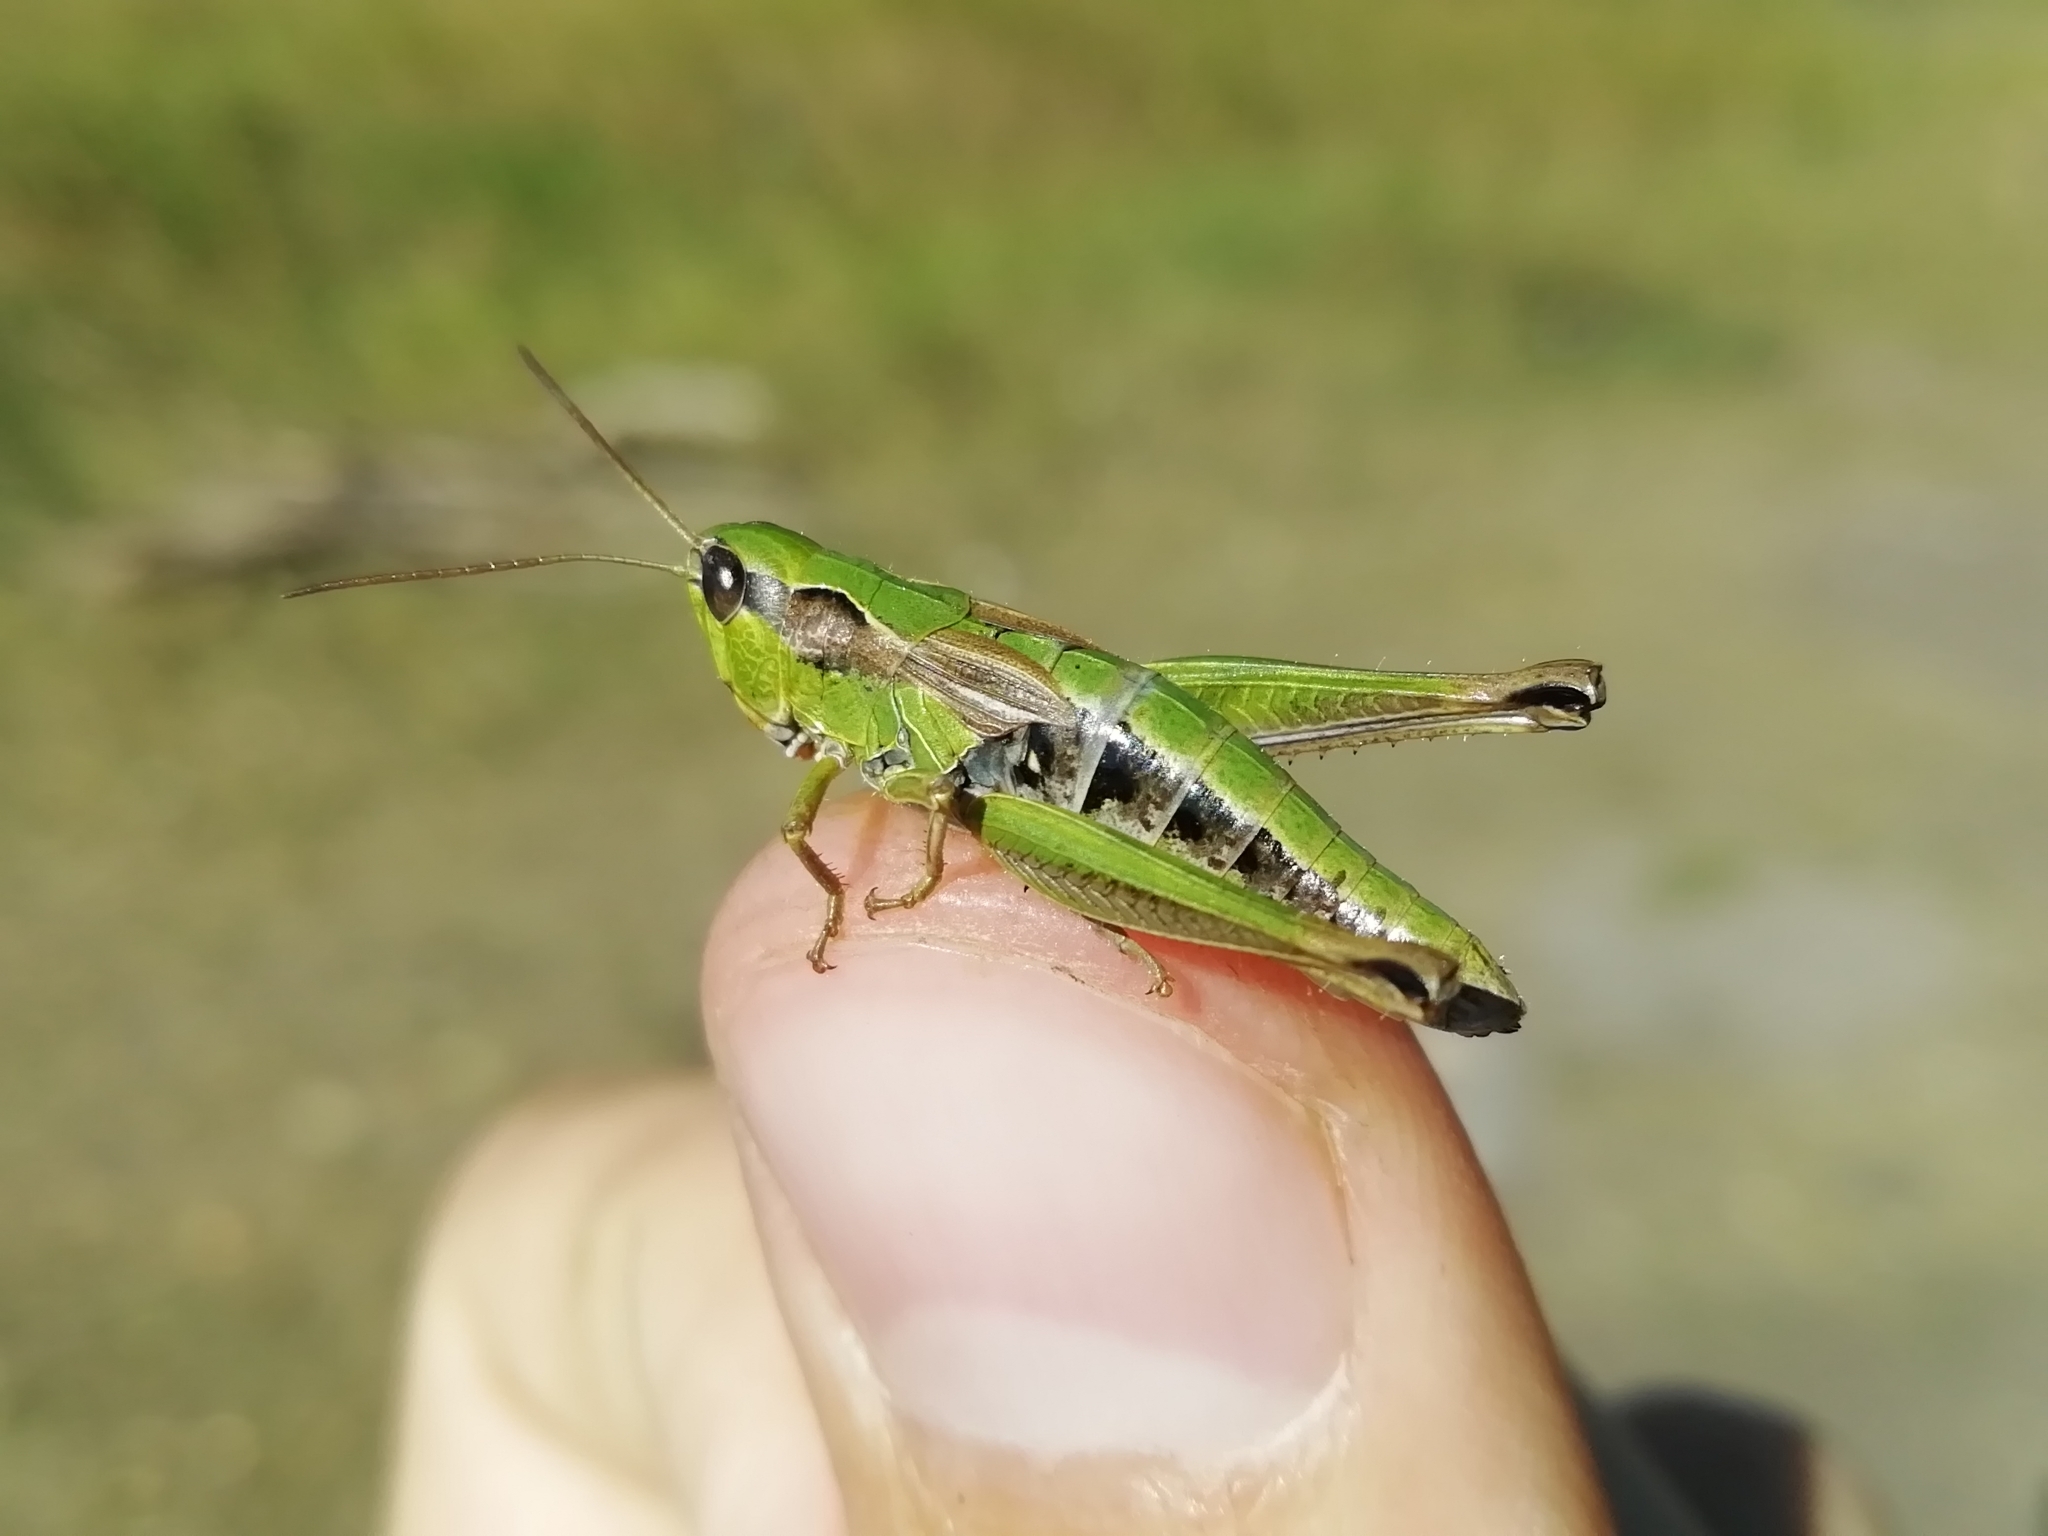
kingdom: Animalia
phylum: Arthropoda
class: Insecta
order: Orthoptera
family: Acrididae
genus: Chorthippus
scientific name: Chorthippus fallax
